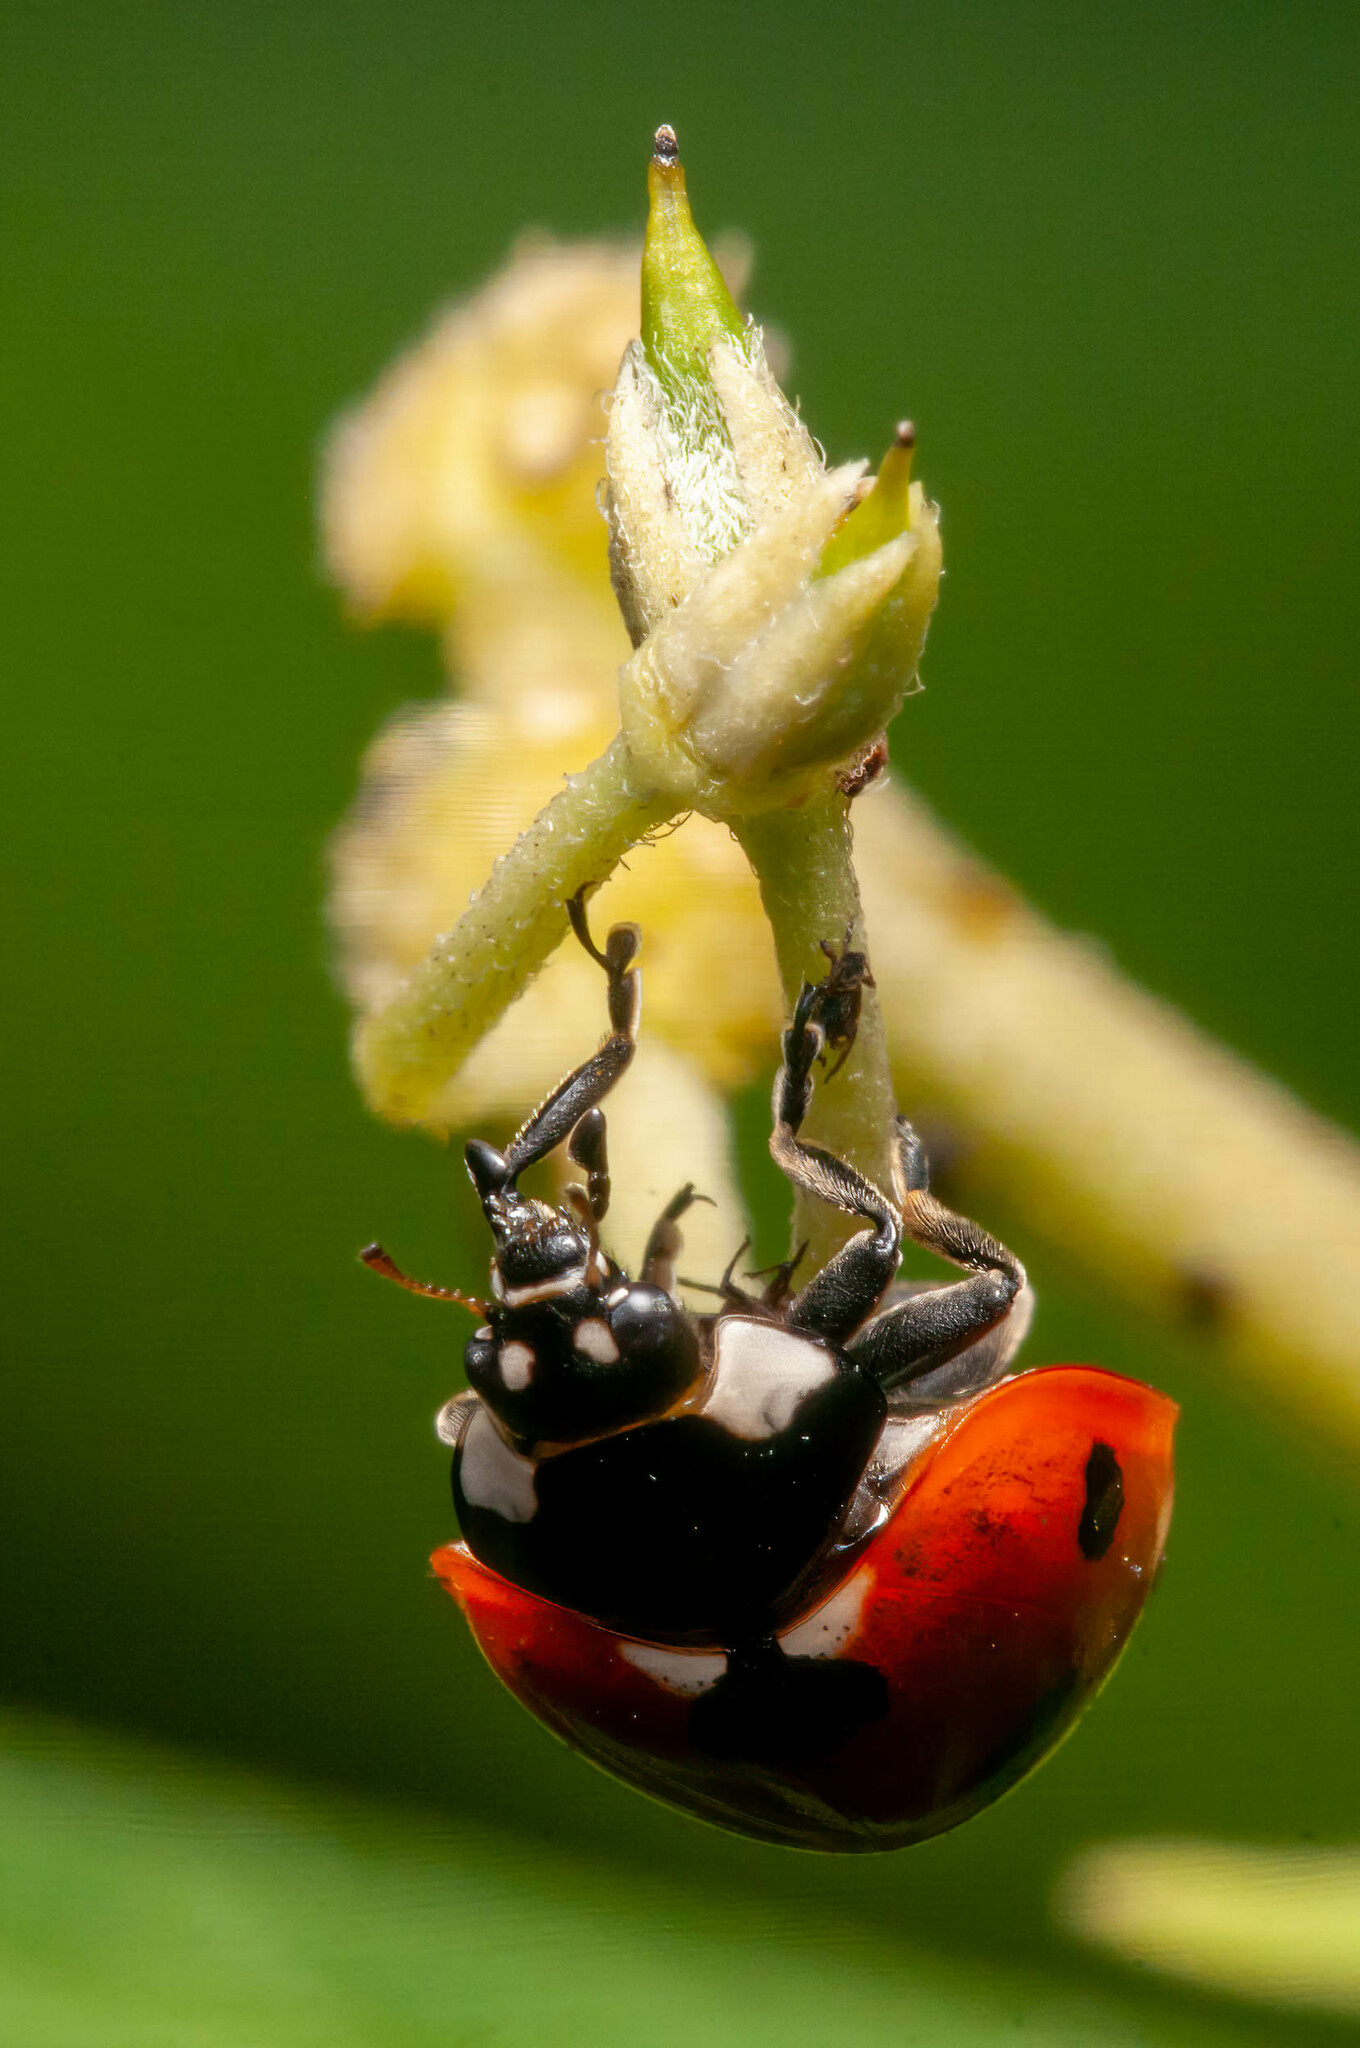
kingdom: Animalia
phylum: Arthropoda
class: Insecta
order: Coleoptera
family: Coccinellidae
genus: Coccinella
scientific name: Coccinella septempunctata
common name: Sevenspotted lady beetle
